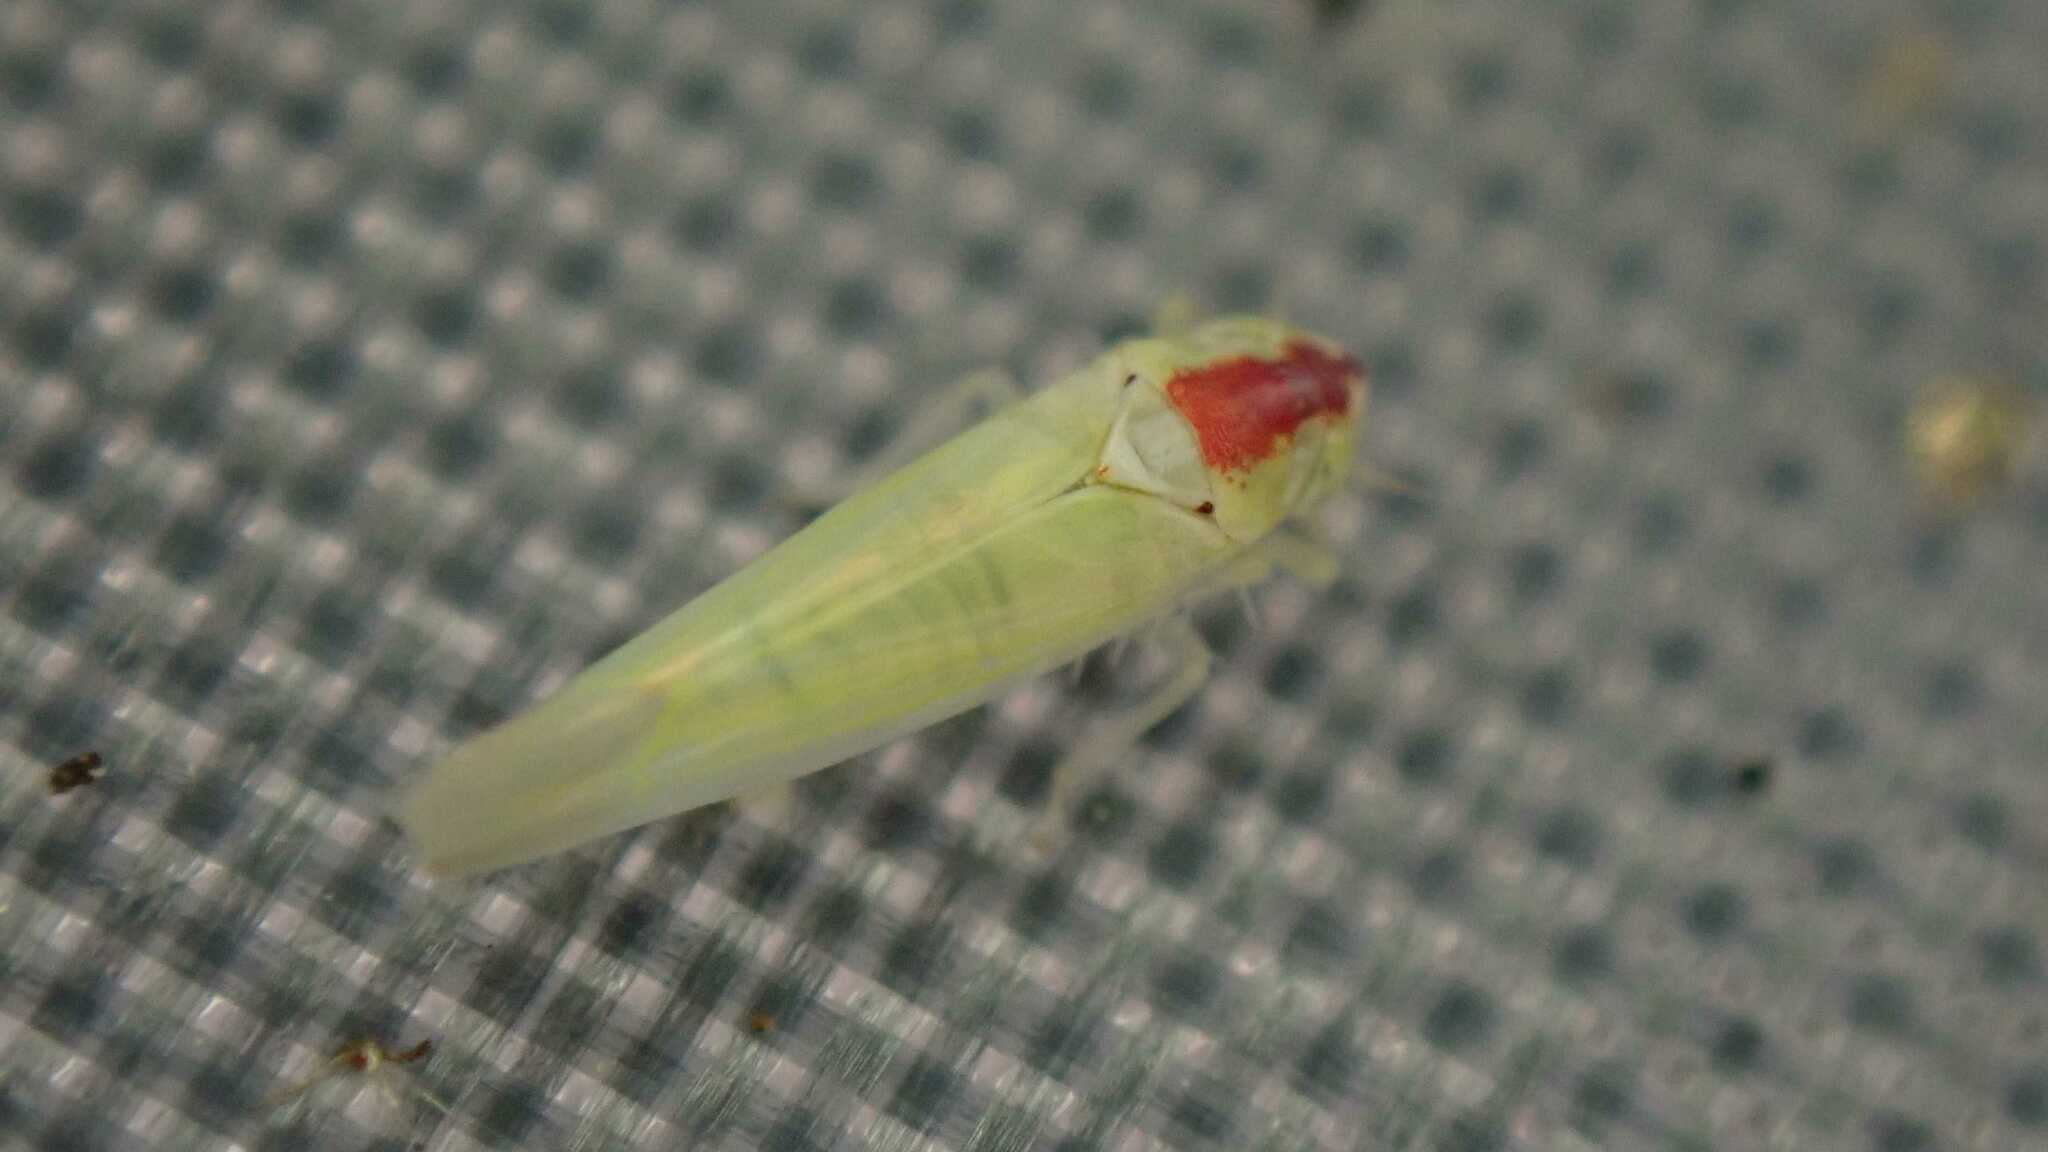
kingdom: Animalia
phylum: Arthropoda
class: Insecta
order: Hemiptera
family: Cicadellidae
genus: Zygina
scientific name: Zygina nivea
